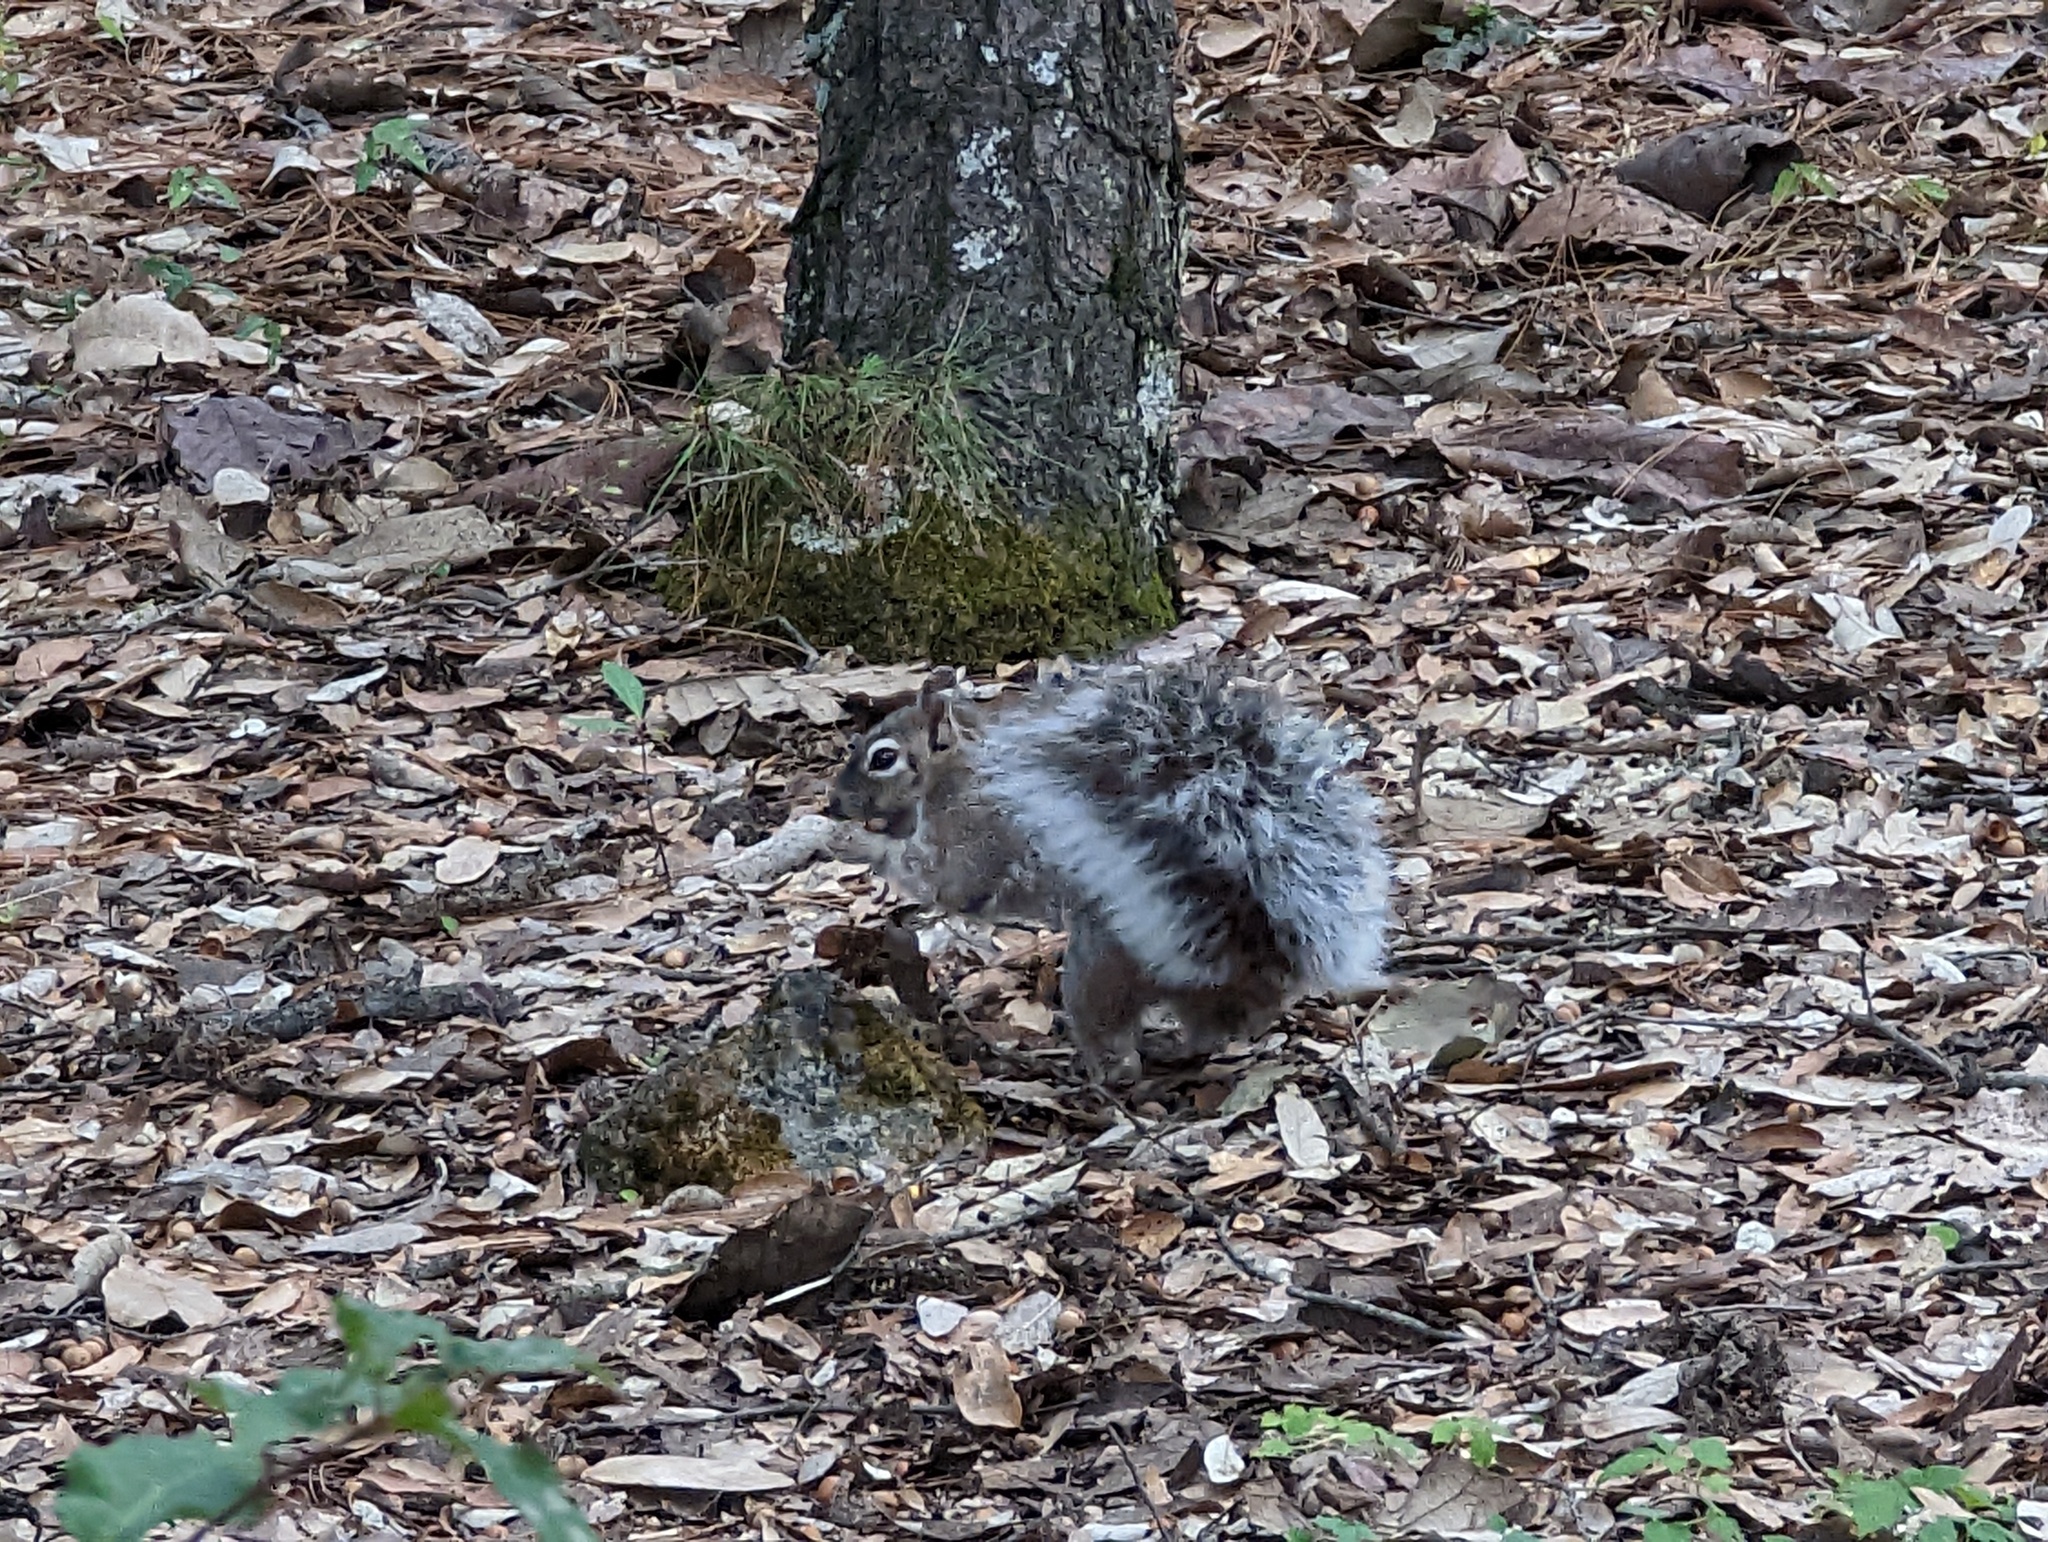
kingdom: Animalia
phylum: Chordata
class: Mammalia
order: Rodentia
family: Sciuridae
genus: Sciurus
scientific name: Sciurus nayaritensis
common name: Mexican fox squirrel
